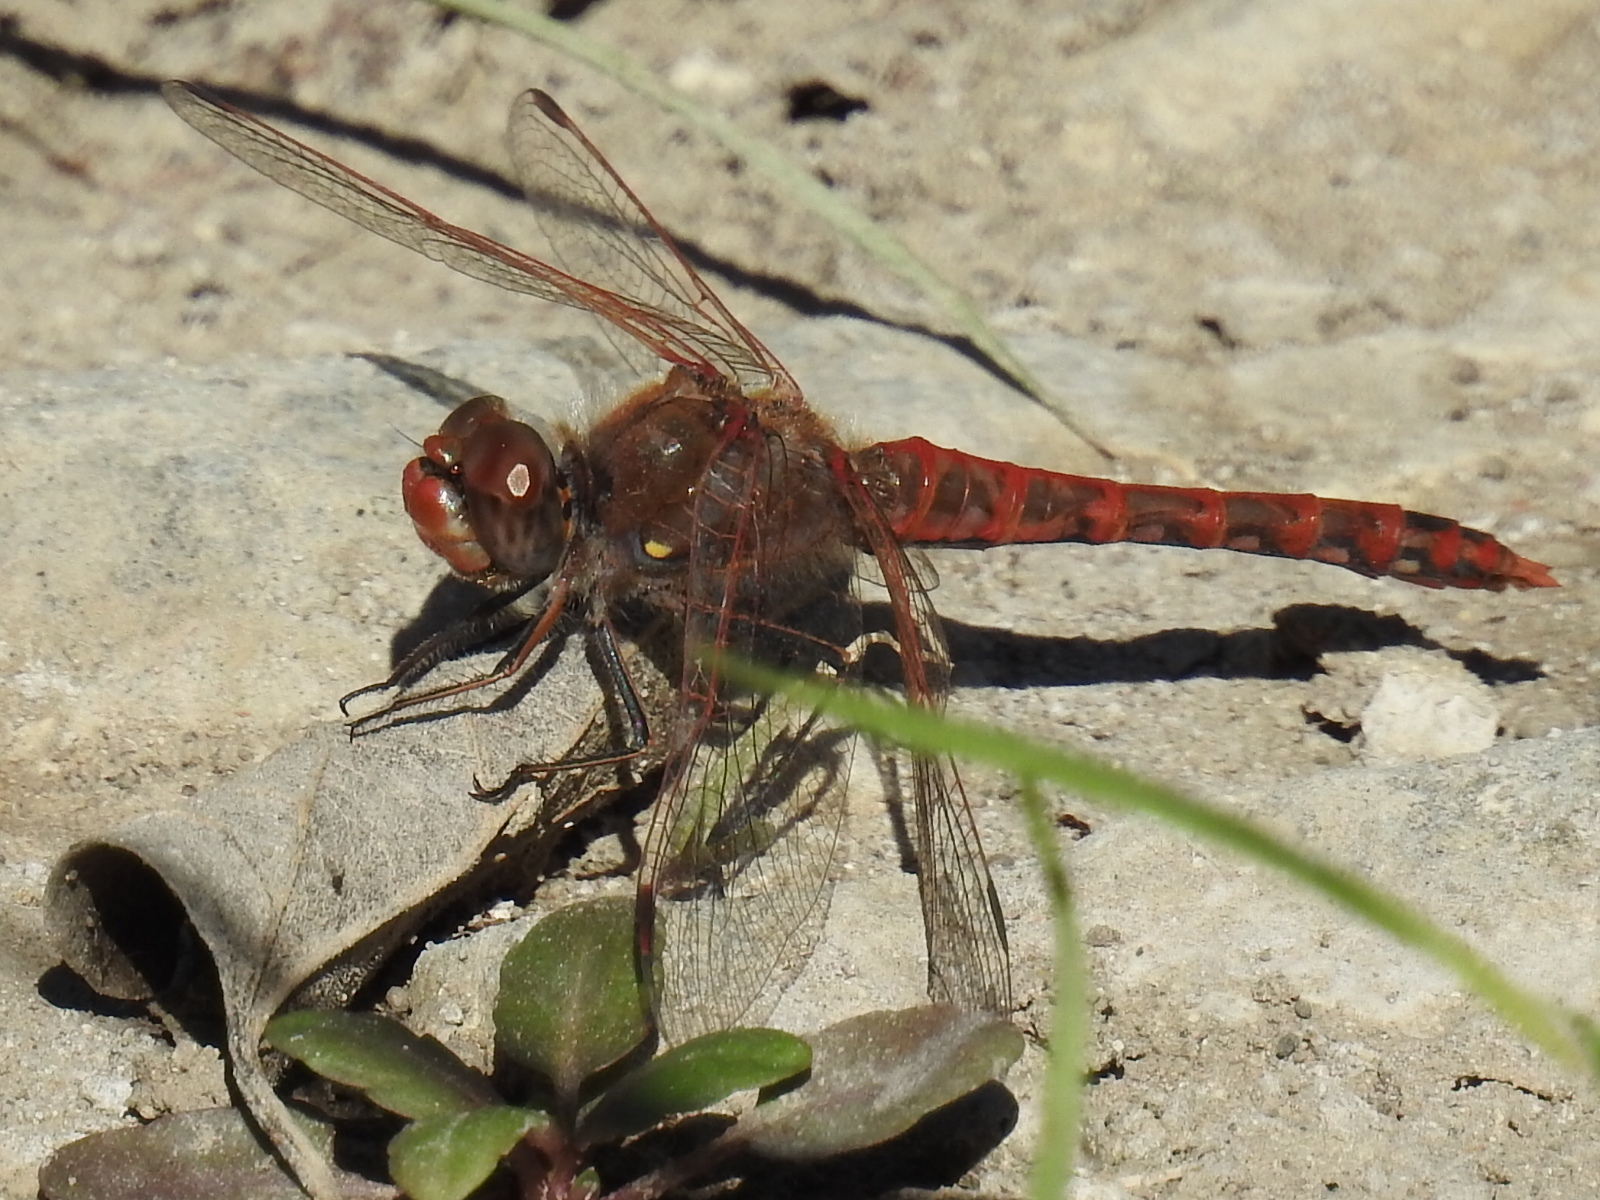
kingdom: Animalia
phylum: Arthropoda
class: Insecta
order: Odonata
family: Libellulidae
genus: Sympetrum
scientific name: Sympetrum corruptum
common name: Variegated meadowhawk
